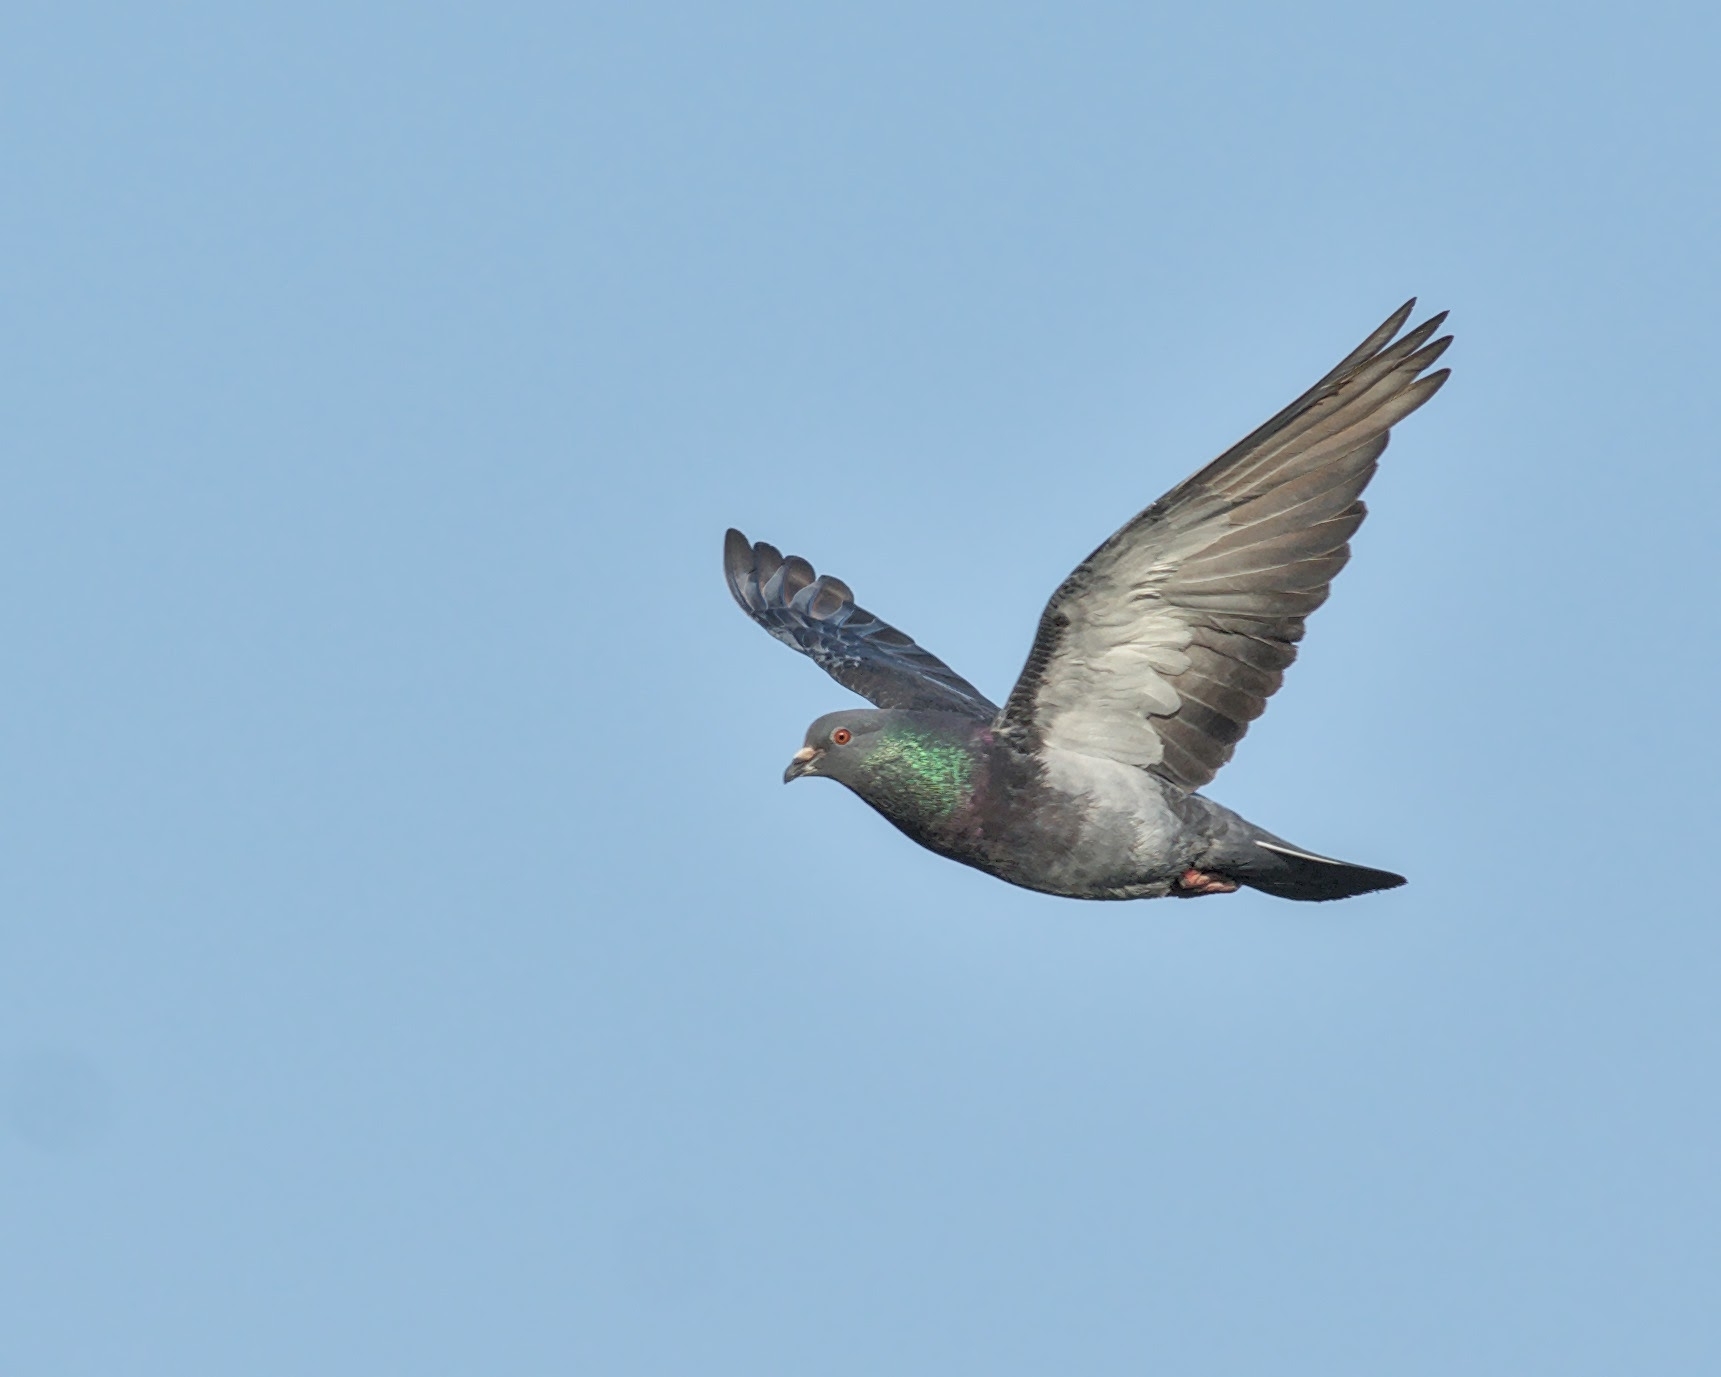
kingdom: Animalia
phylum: Chordata
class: Aves
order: Columbiformes
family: Columbidae
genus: Columba
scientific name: Columba livia
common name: Rock pigeon
